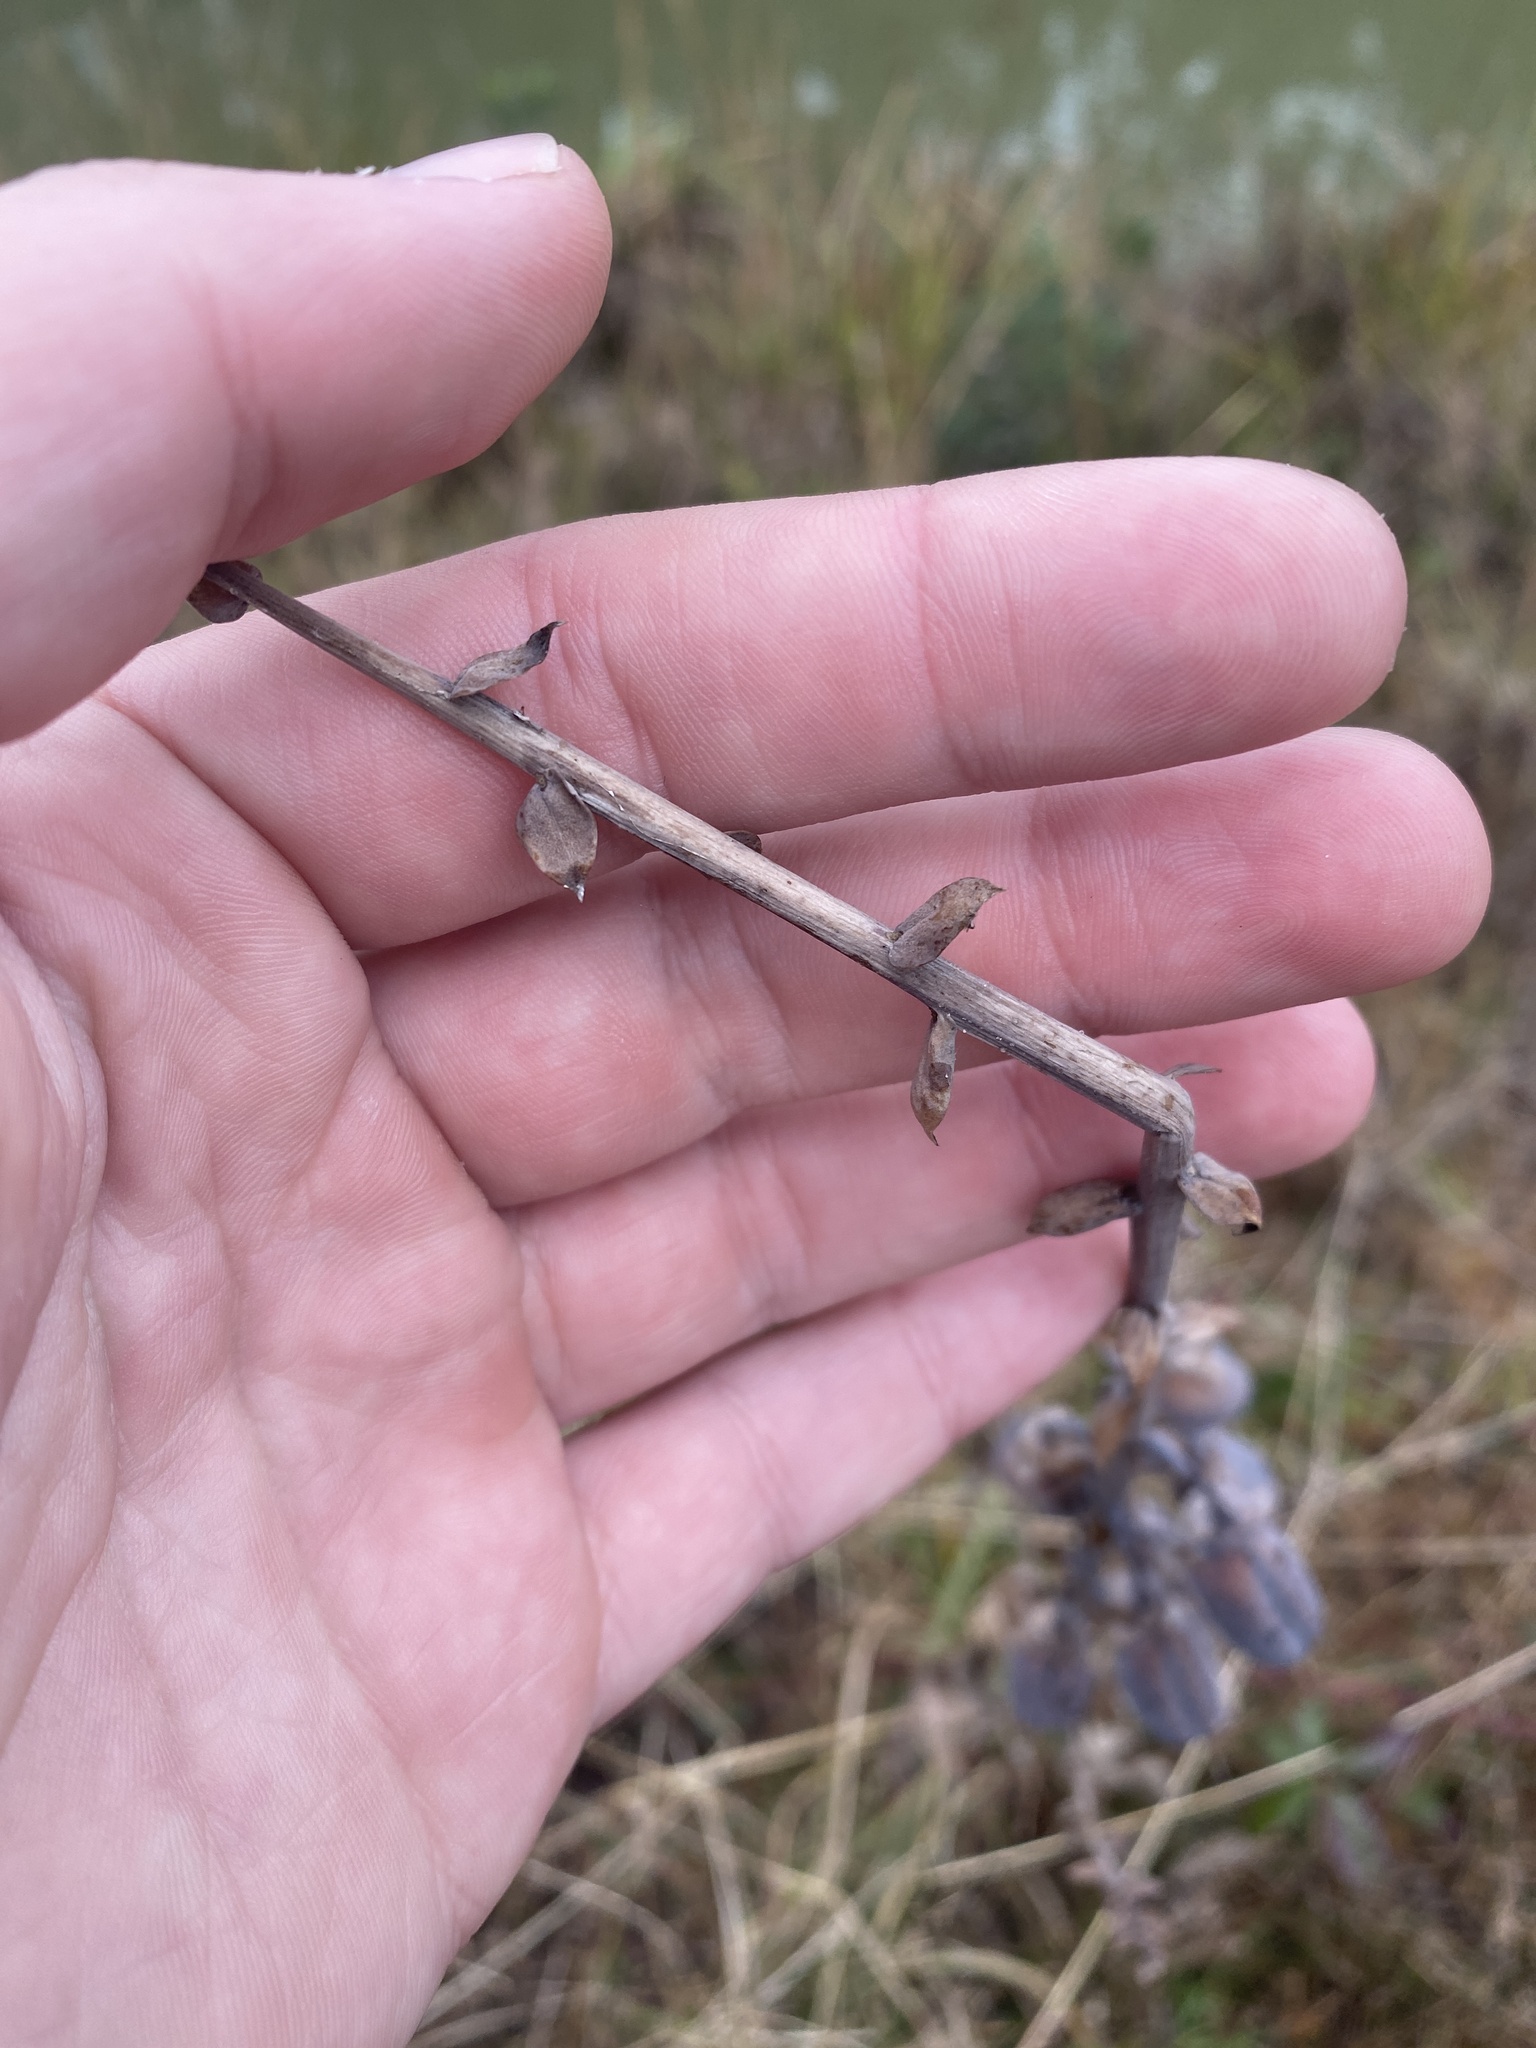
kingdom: Plantae
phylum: Tracheophyta
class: Magnoliopsida
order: Fabales
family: Fabaceae
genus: Crotalaria
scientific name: Crotalaria spectabilis
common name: Showy rattlebox
